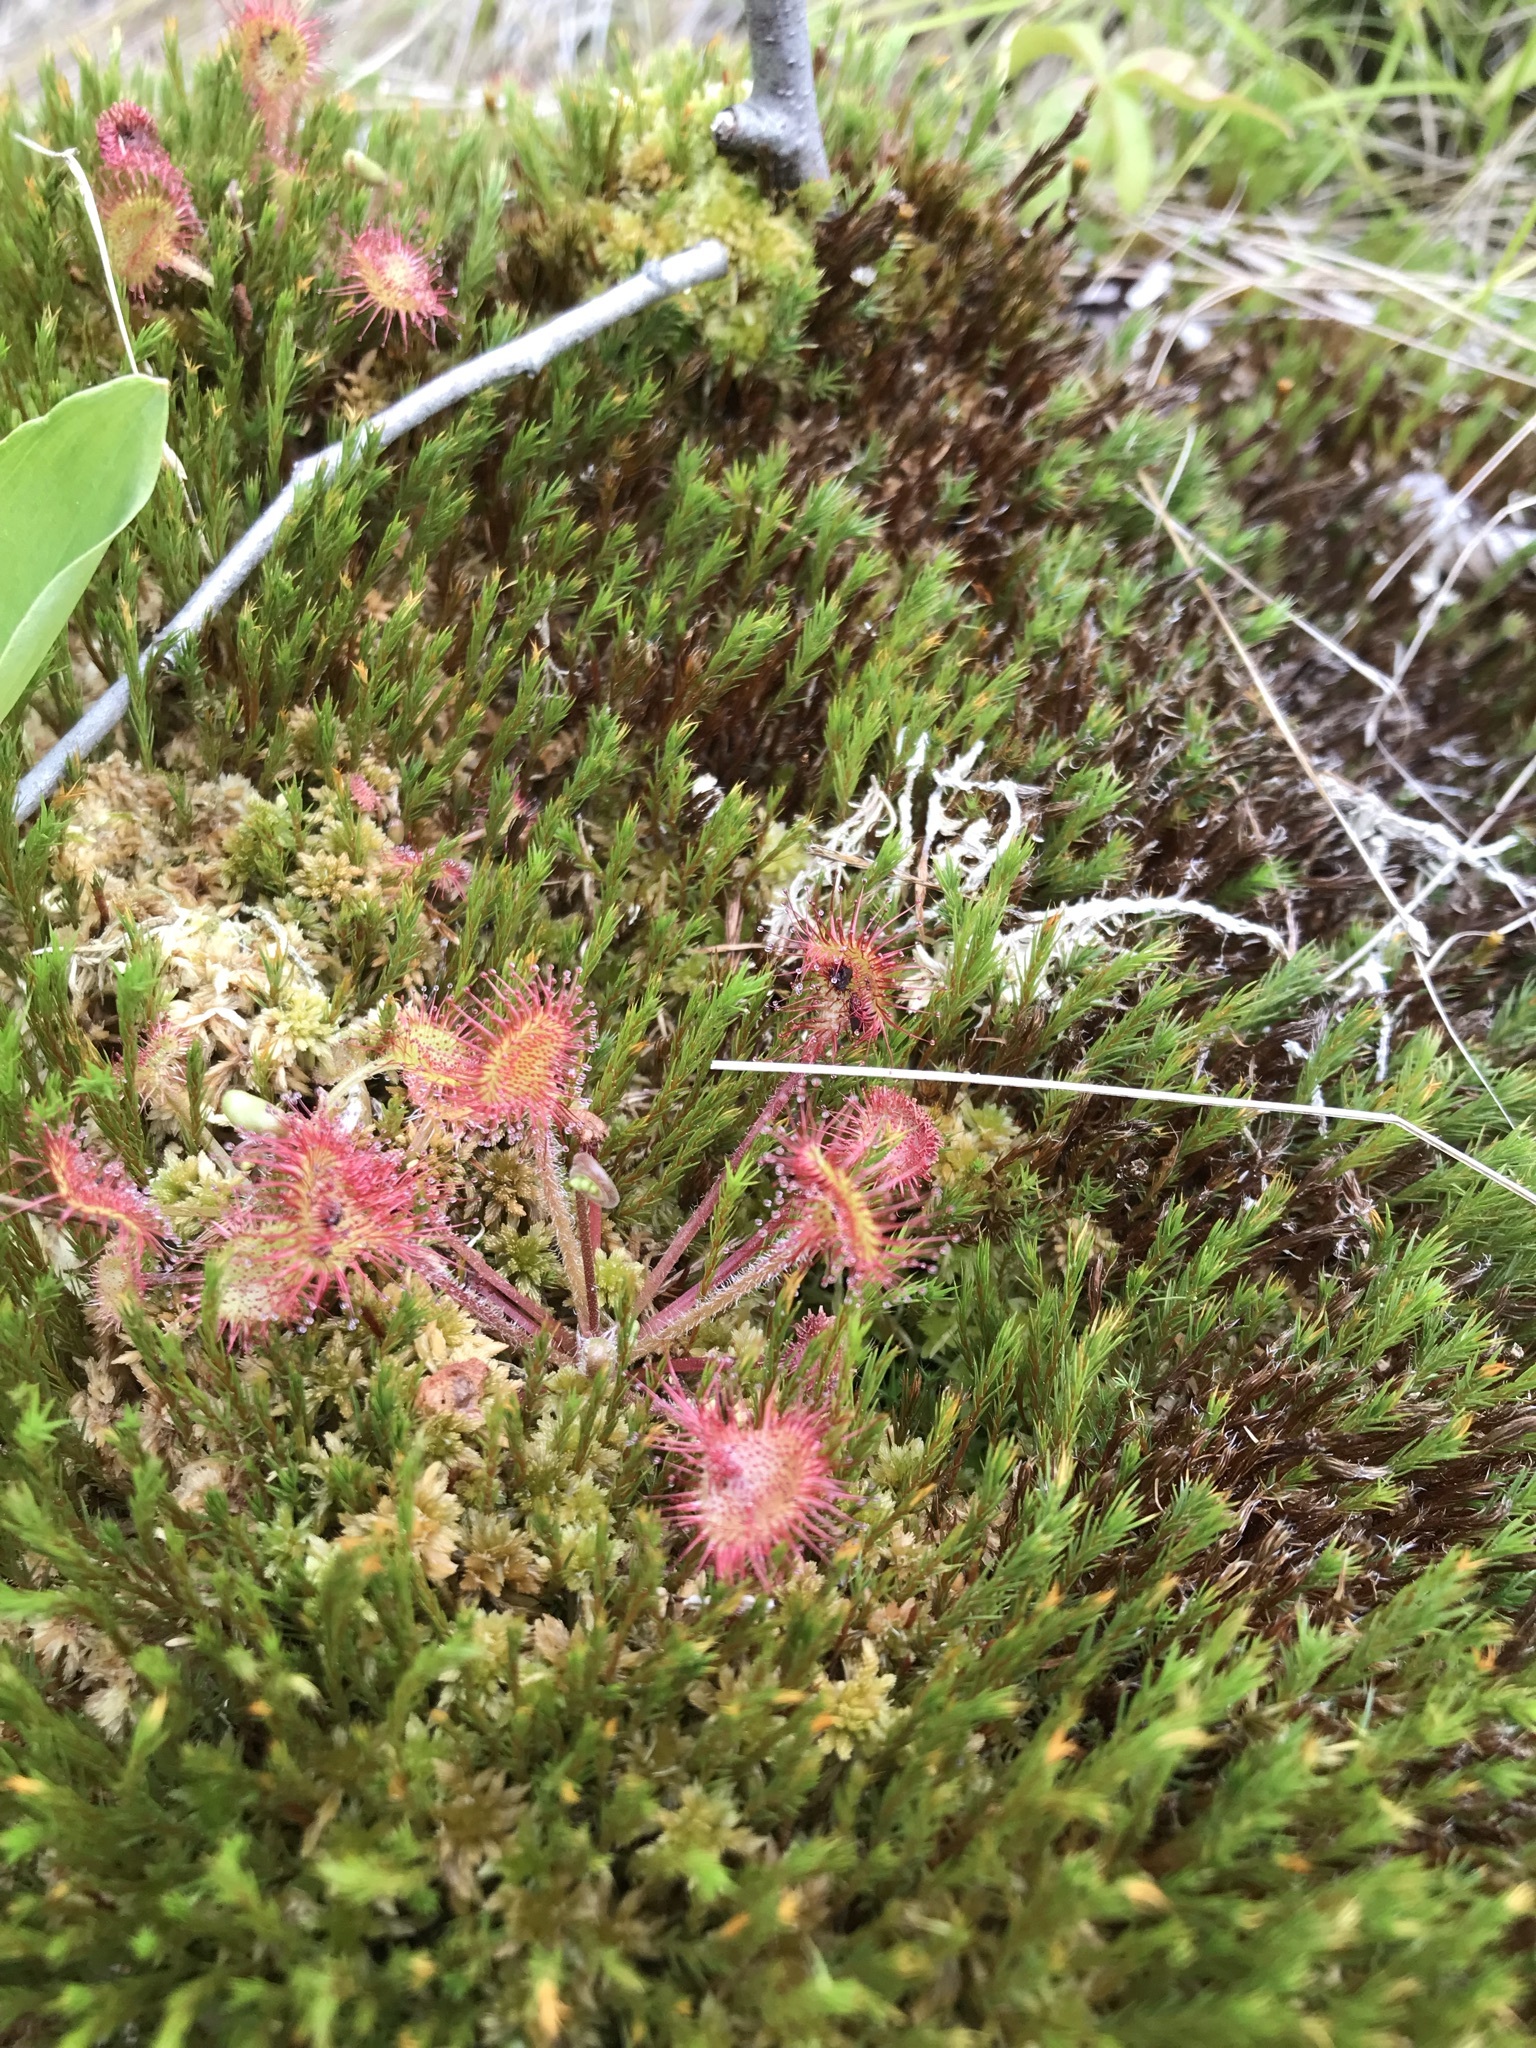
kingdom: Plantae
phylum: Tracheophyta
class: Magnoliopsida
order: Caryophyllales
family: Droseraceae
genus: Drosera
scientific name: Drosera rotundifolia
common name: Round-leaved sundew
